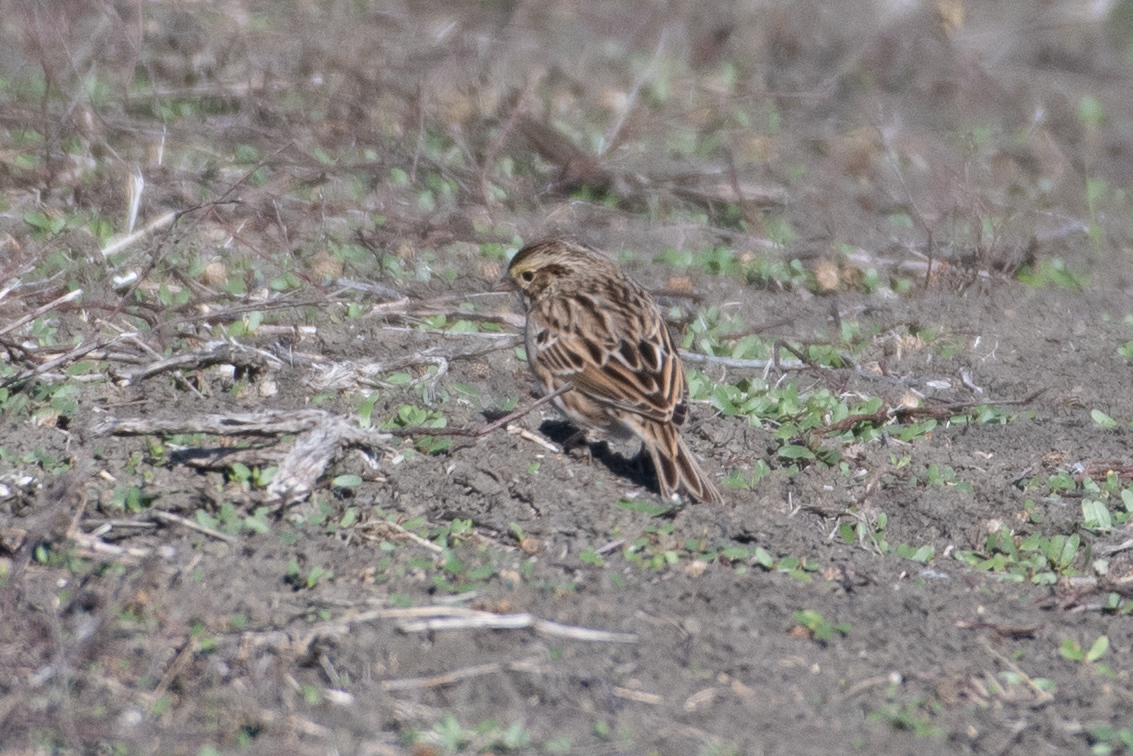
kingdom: Animalia
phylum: Chordata
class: Aves
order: Passeriformes
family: Passerellidae
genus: Passerculus
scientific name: Passerculus sandwichensis
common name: Savannah sparrow
